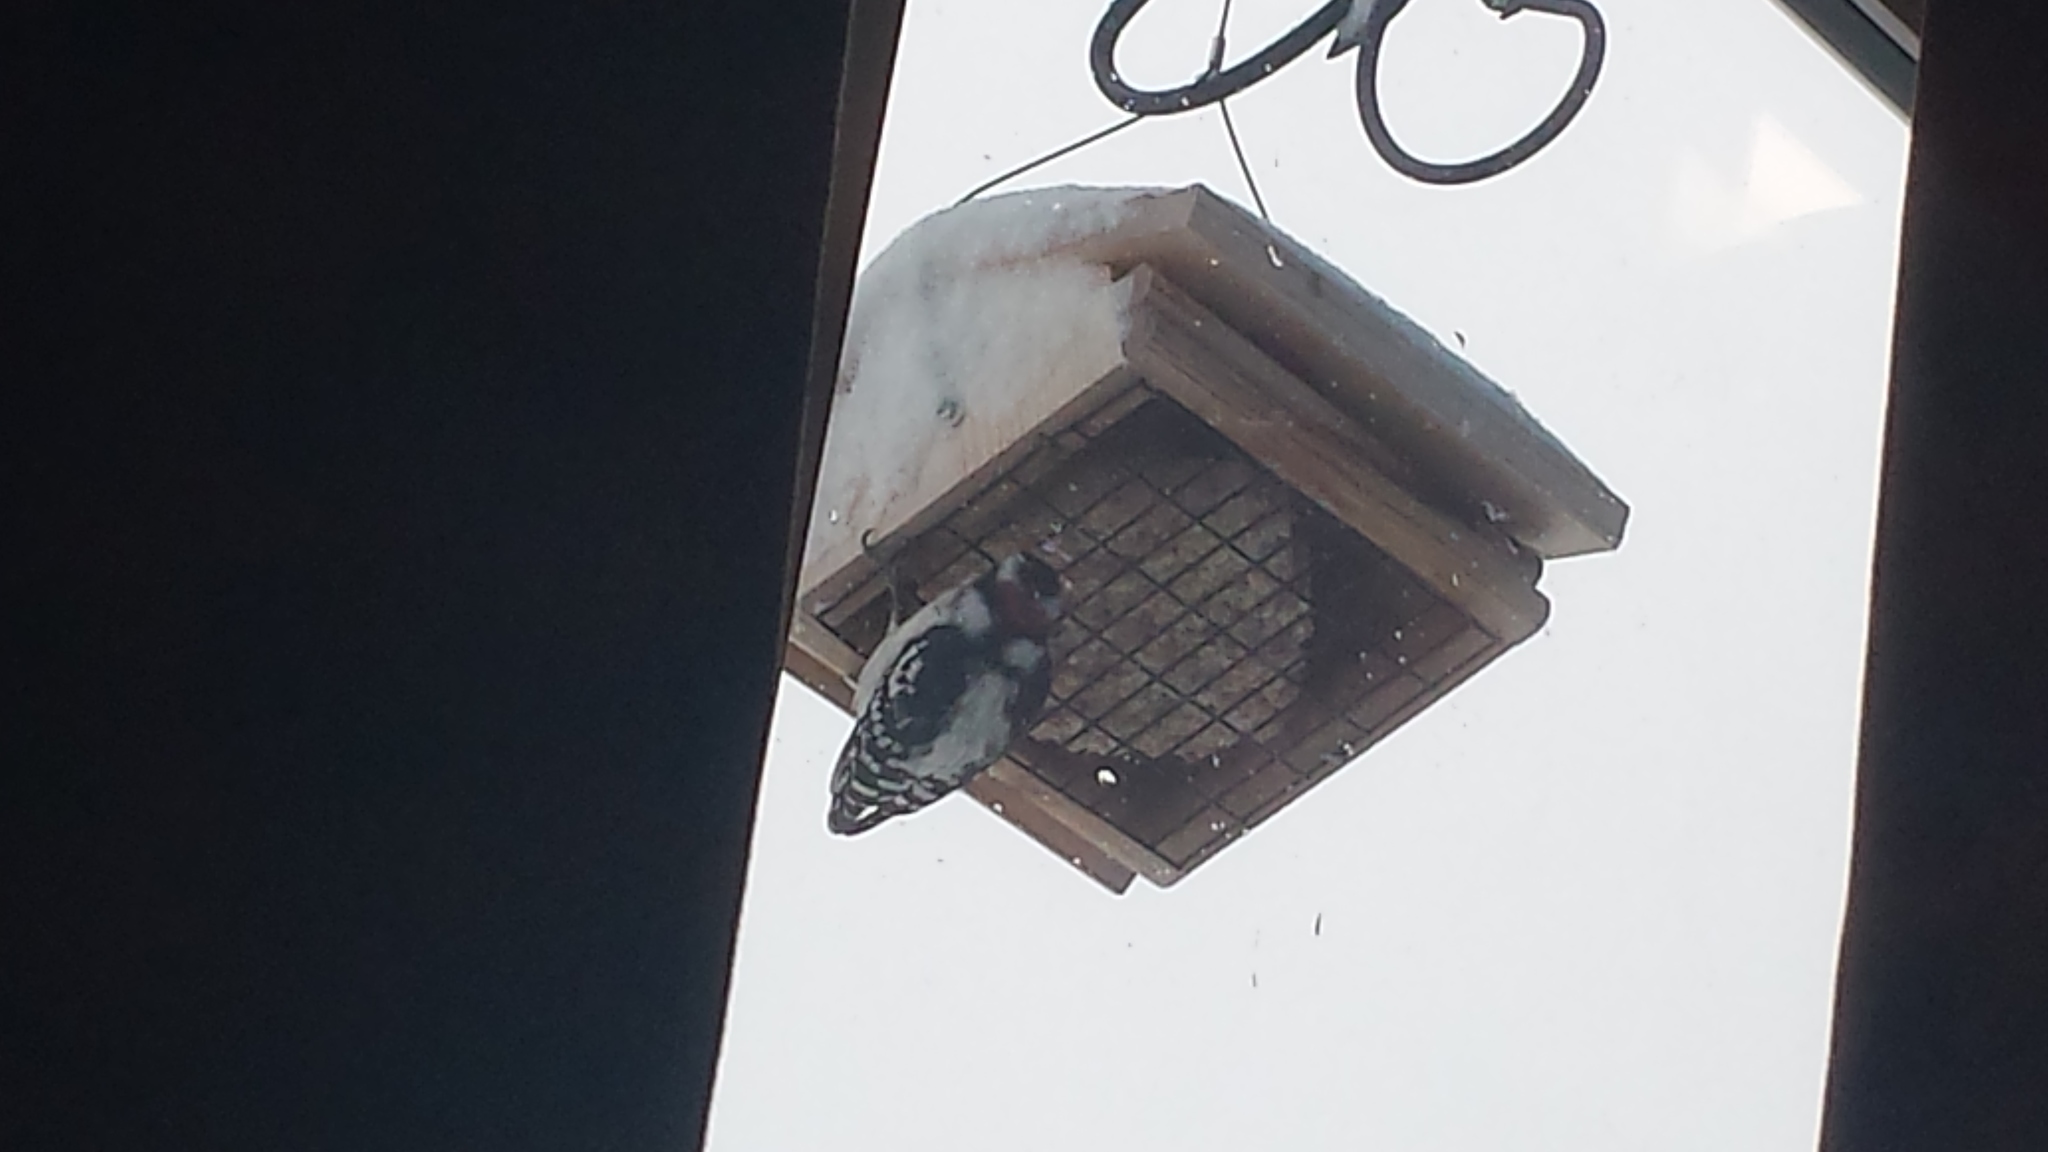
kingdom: Animalia
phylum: Chordata
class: Aves
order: Piciformes
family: Picidae
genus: Dryobates
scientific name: Dryobates pubescens
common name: Downy woodpecker
